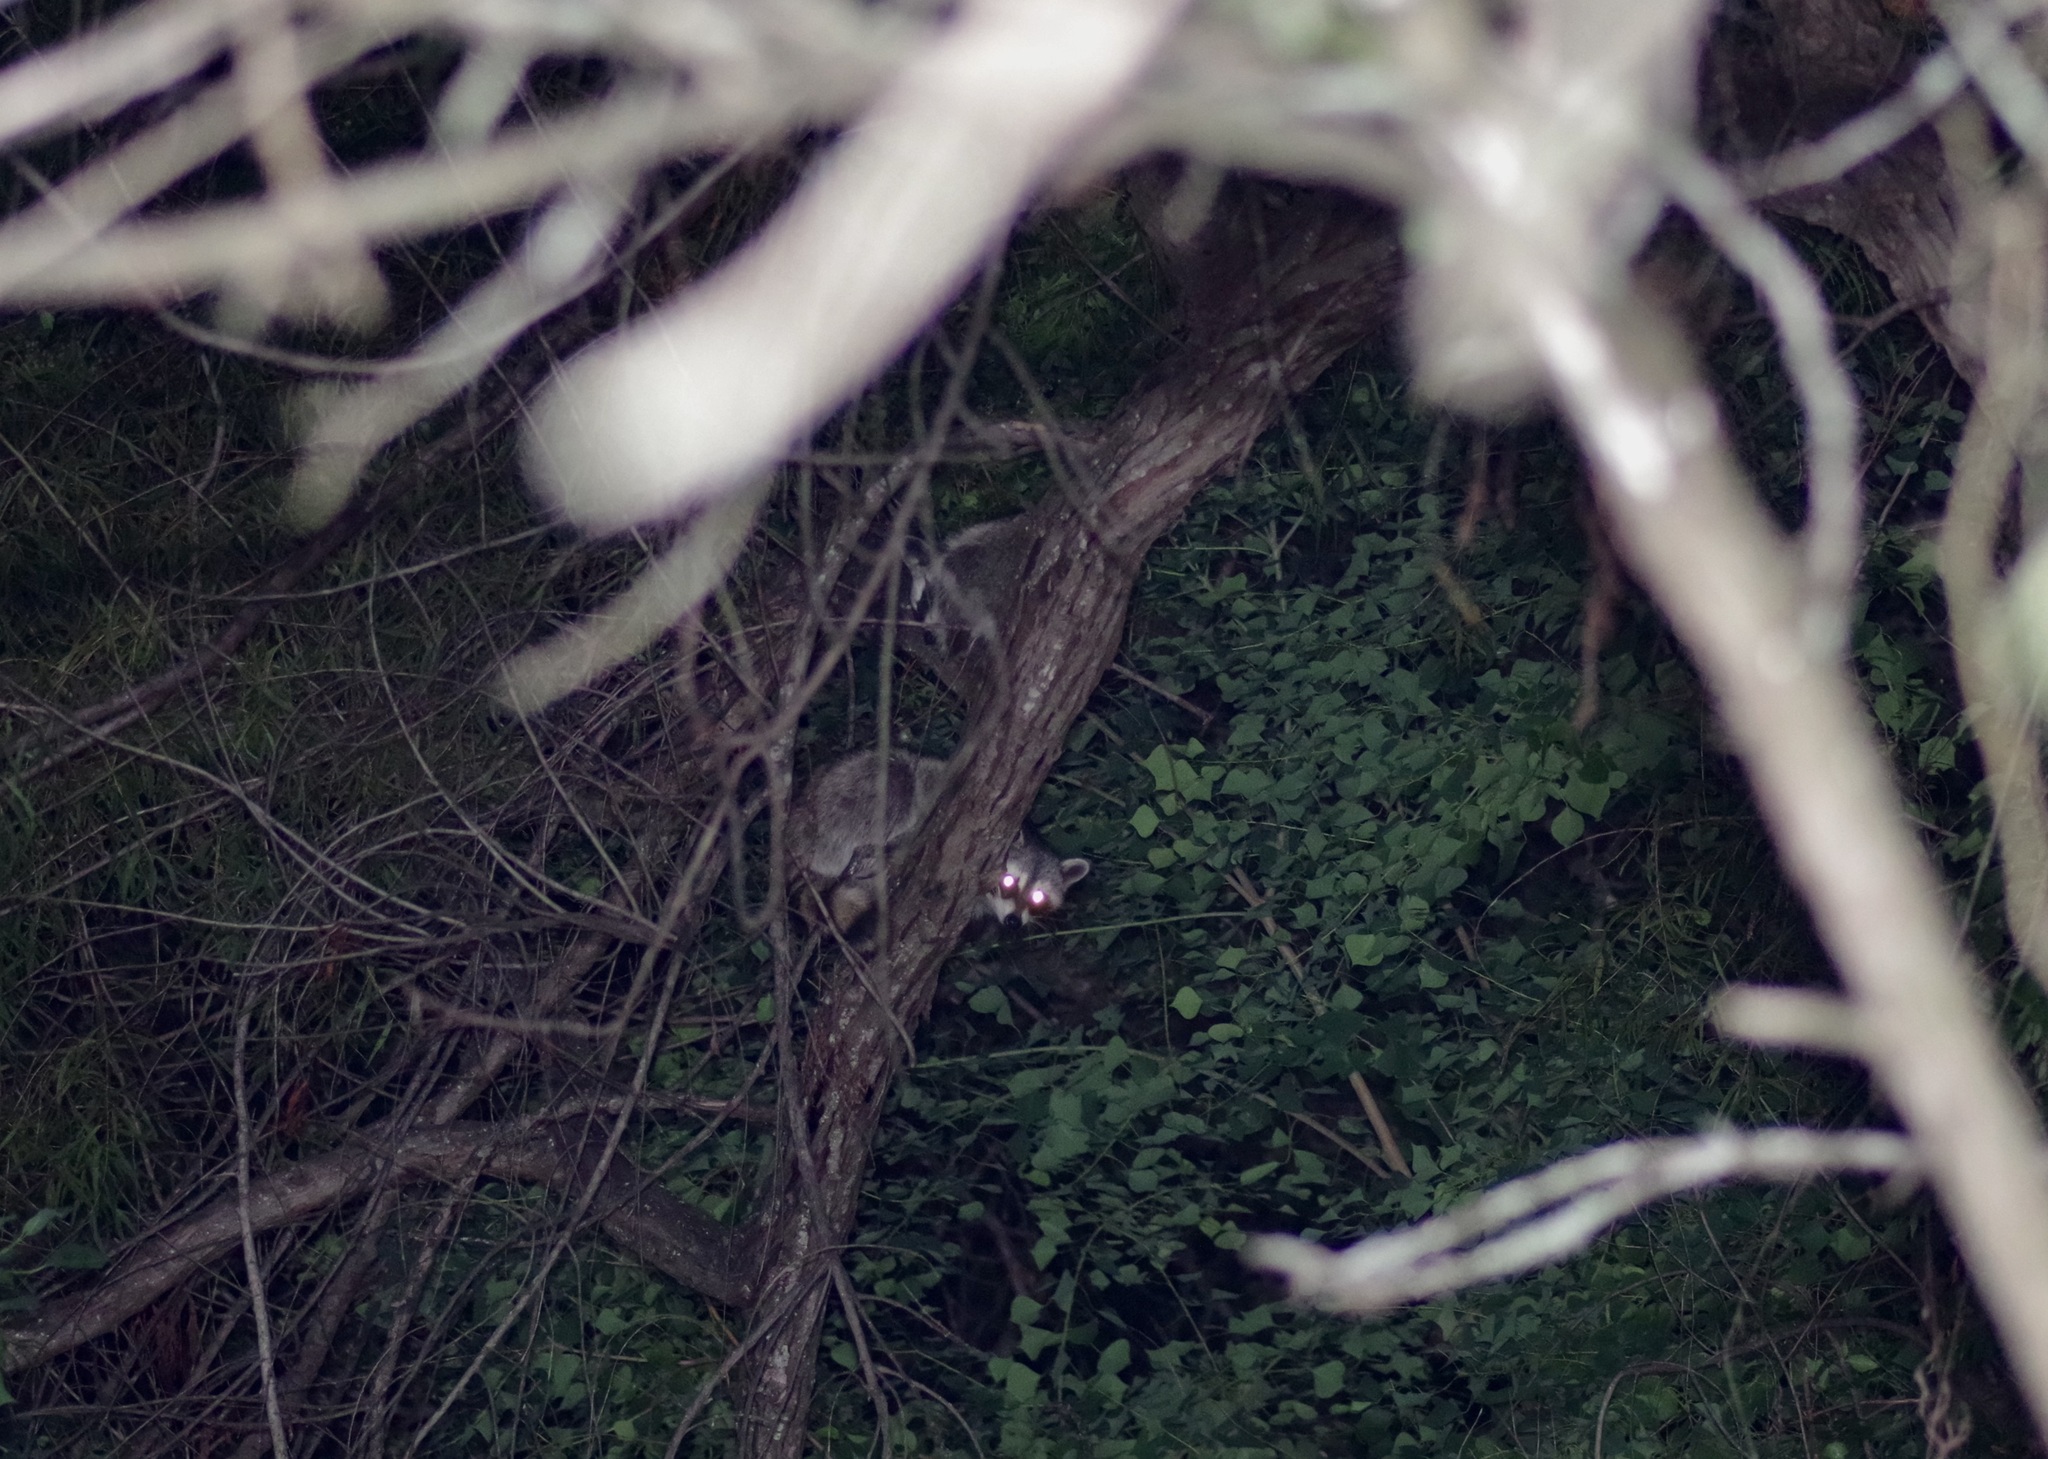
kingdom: Animalia
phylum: Chordata
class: Mammalia
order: Carnivora
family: Procyonidae
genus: Procyon
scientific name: Procyon lotor
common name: Raccoon
